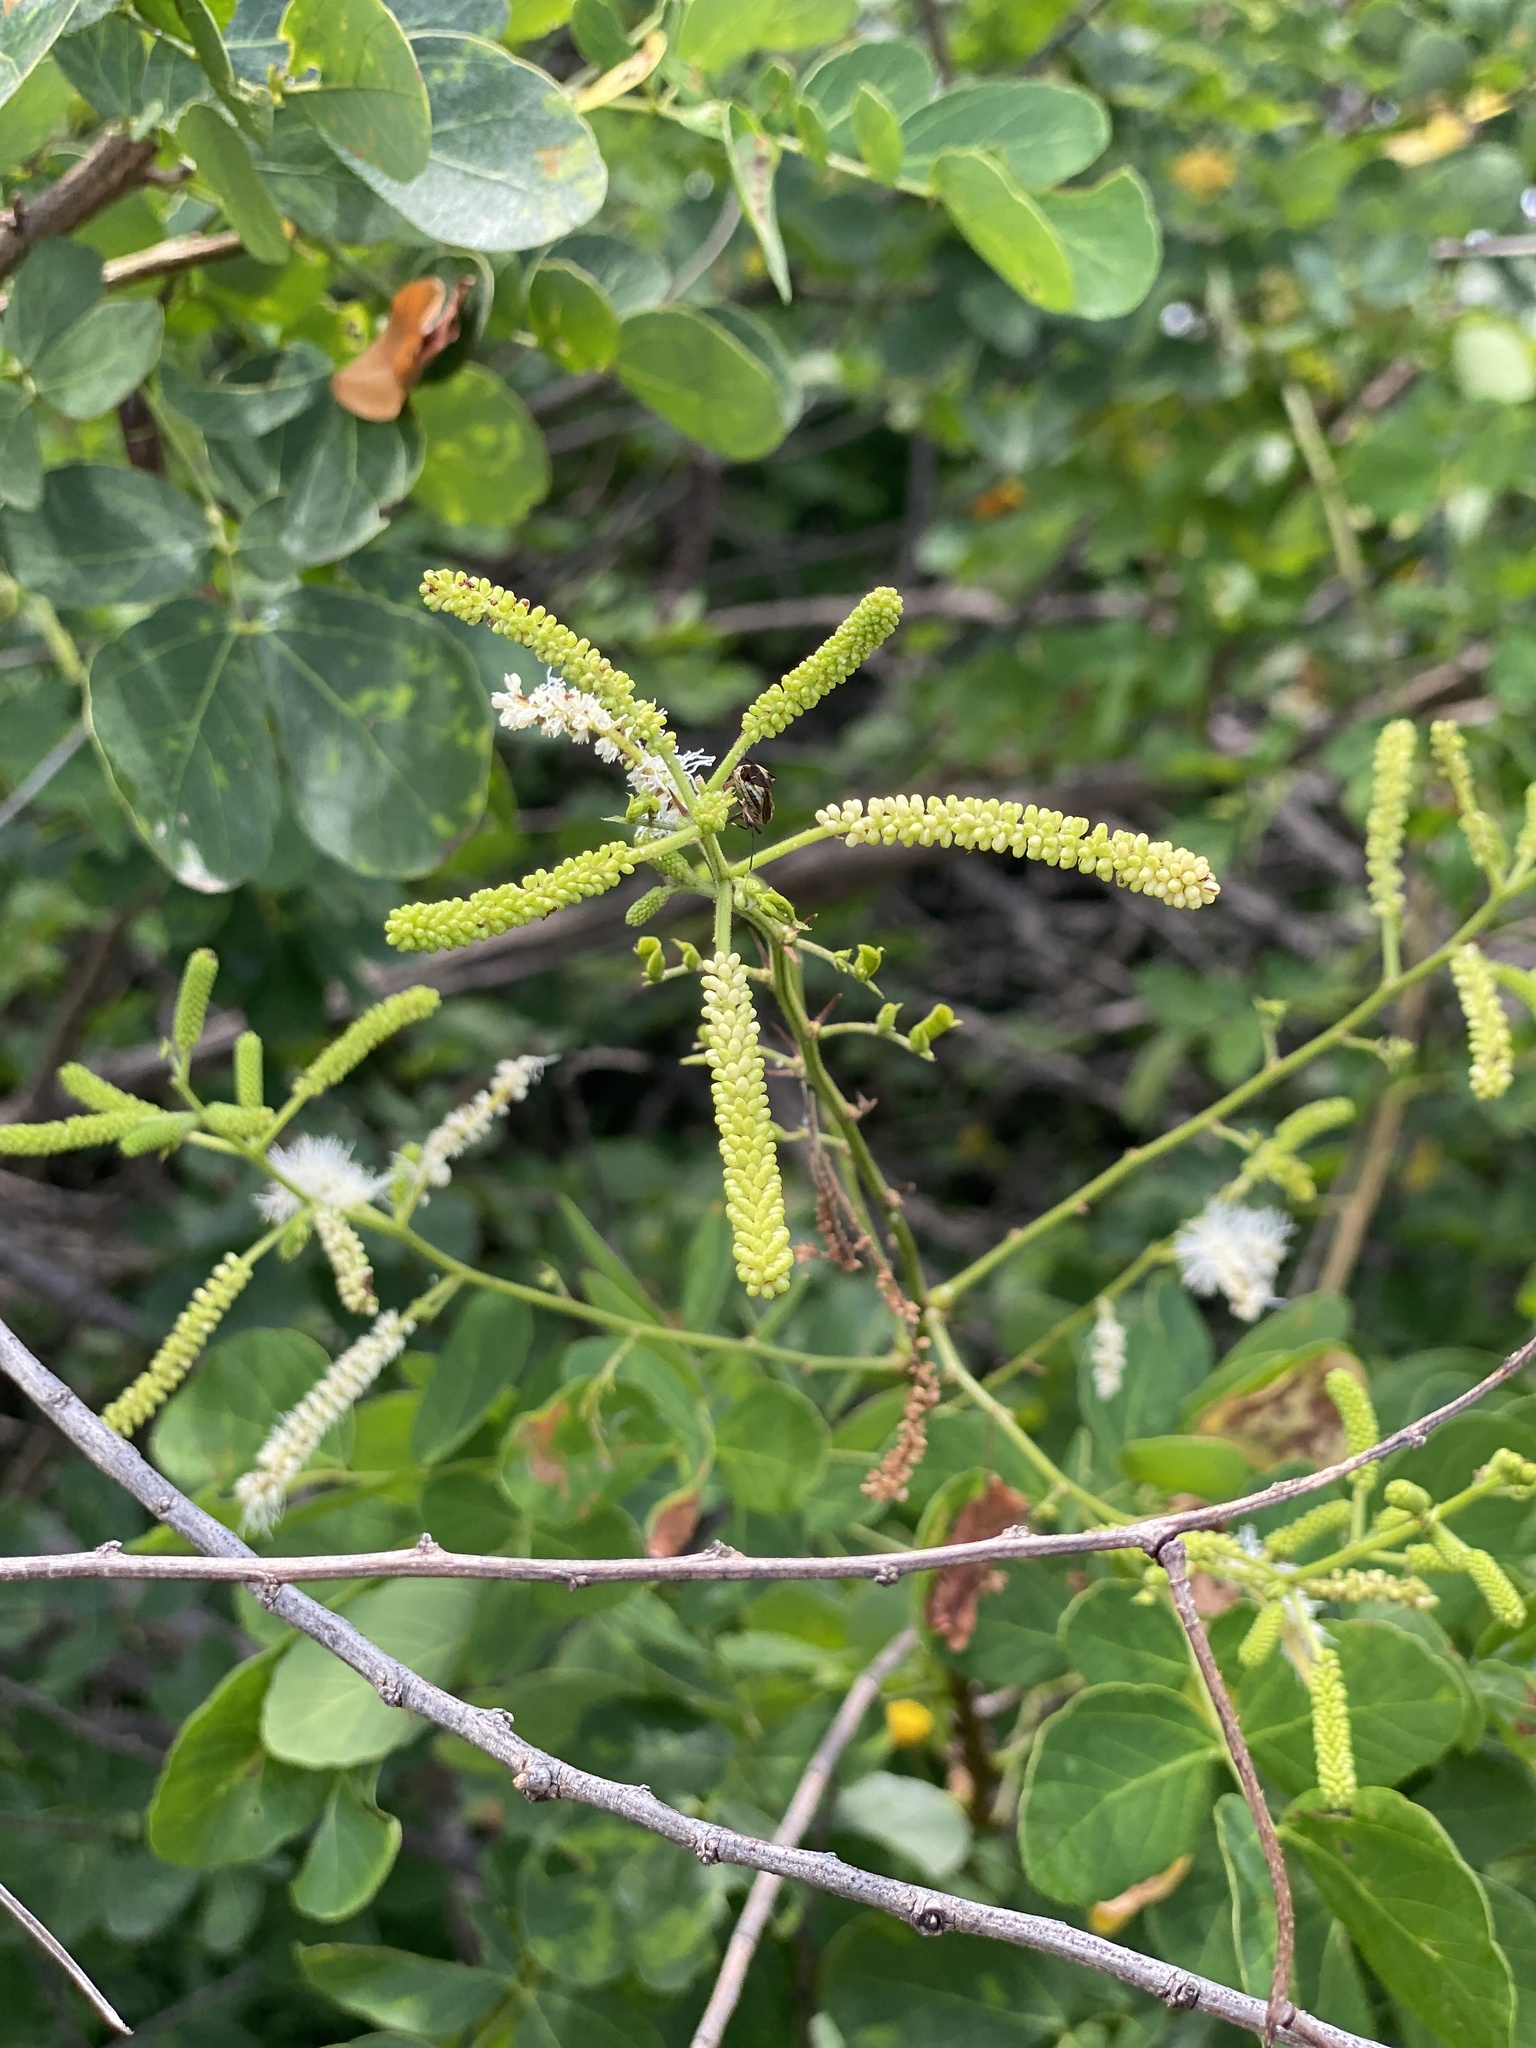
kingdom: Plantae
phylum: Tracheophyta
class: Magnoliopsida
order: Fabales
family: Fabaceae
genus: Mimosa
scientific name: Mimosa caesalpiniifolia
